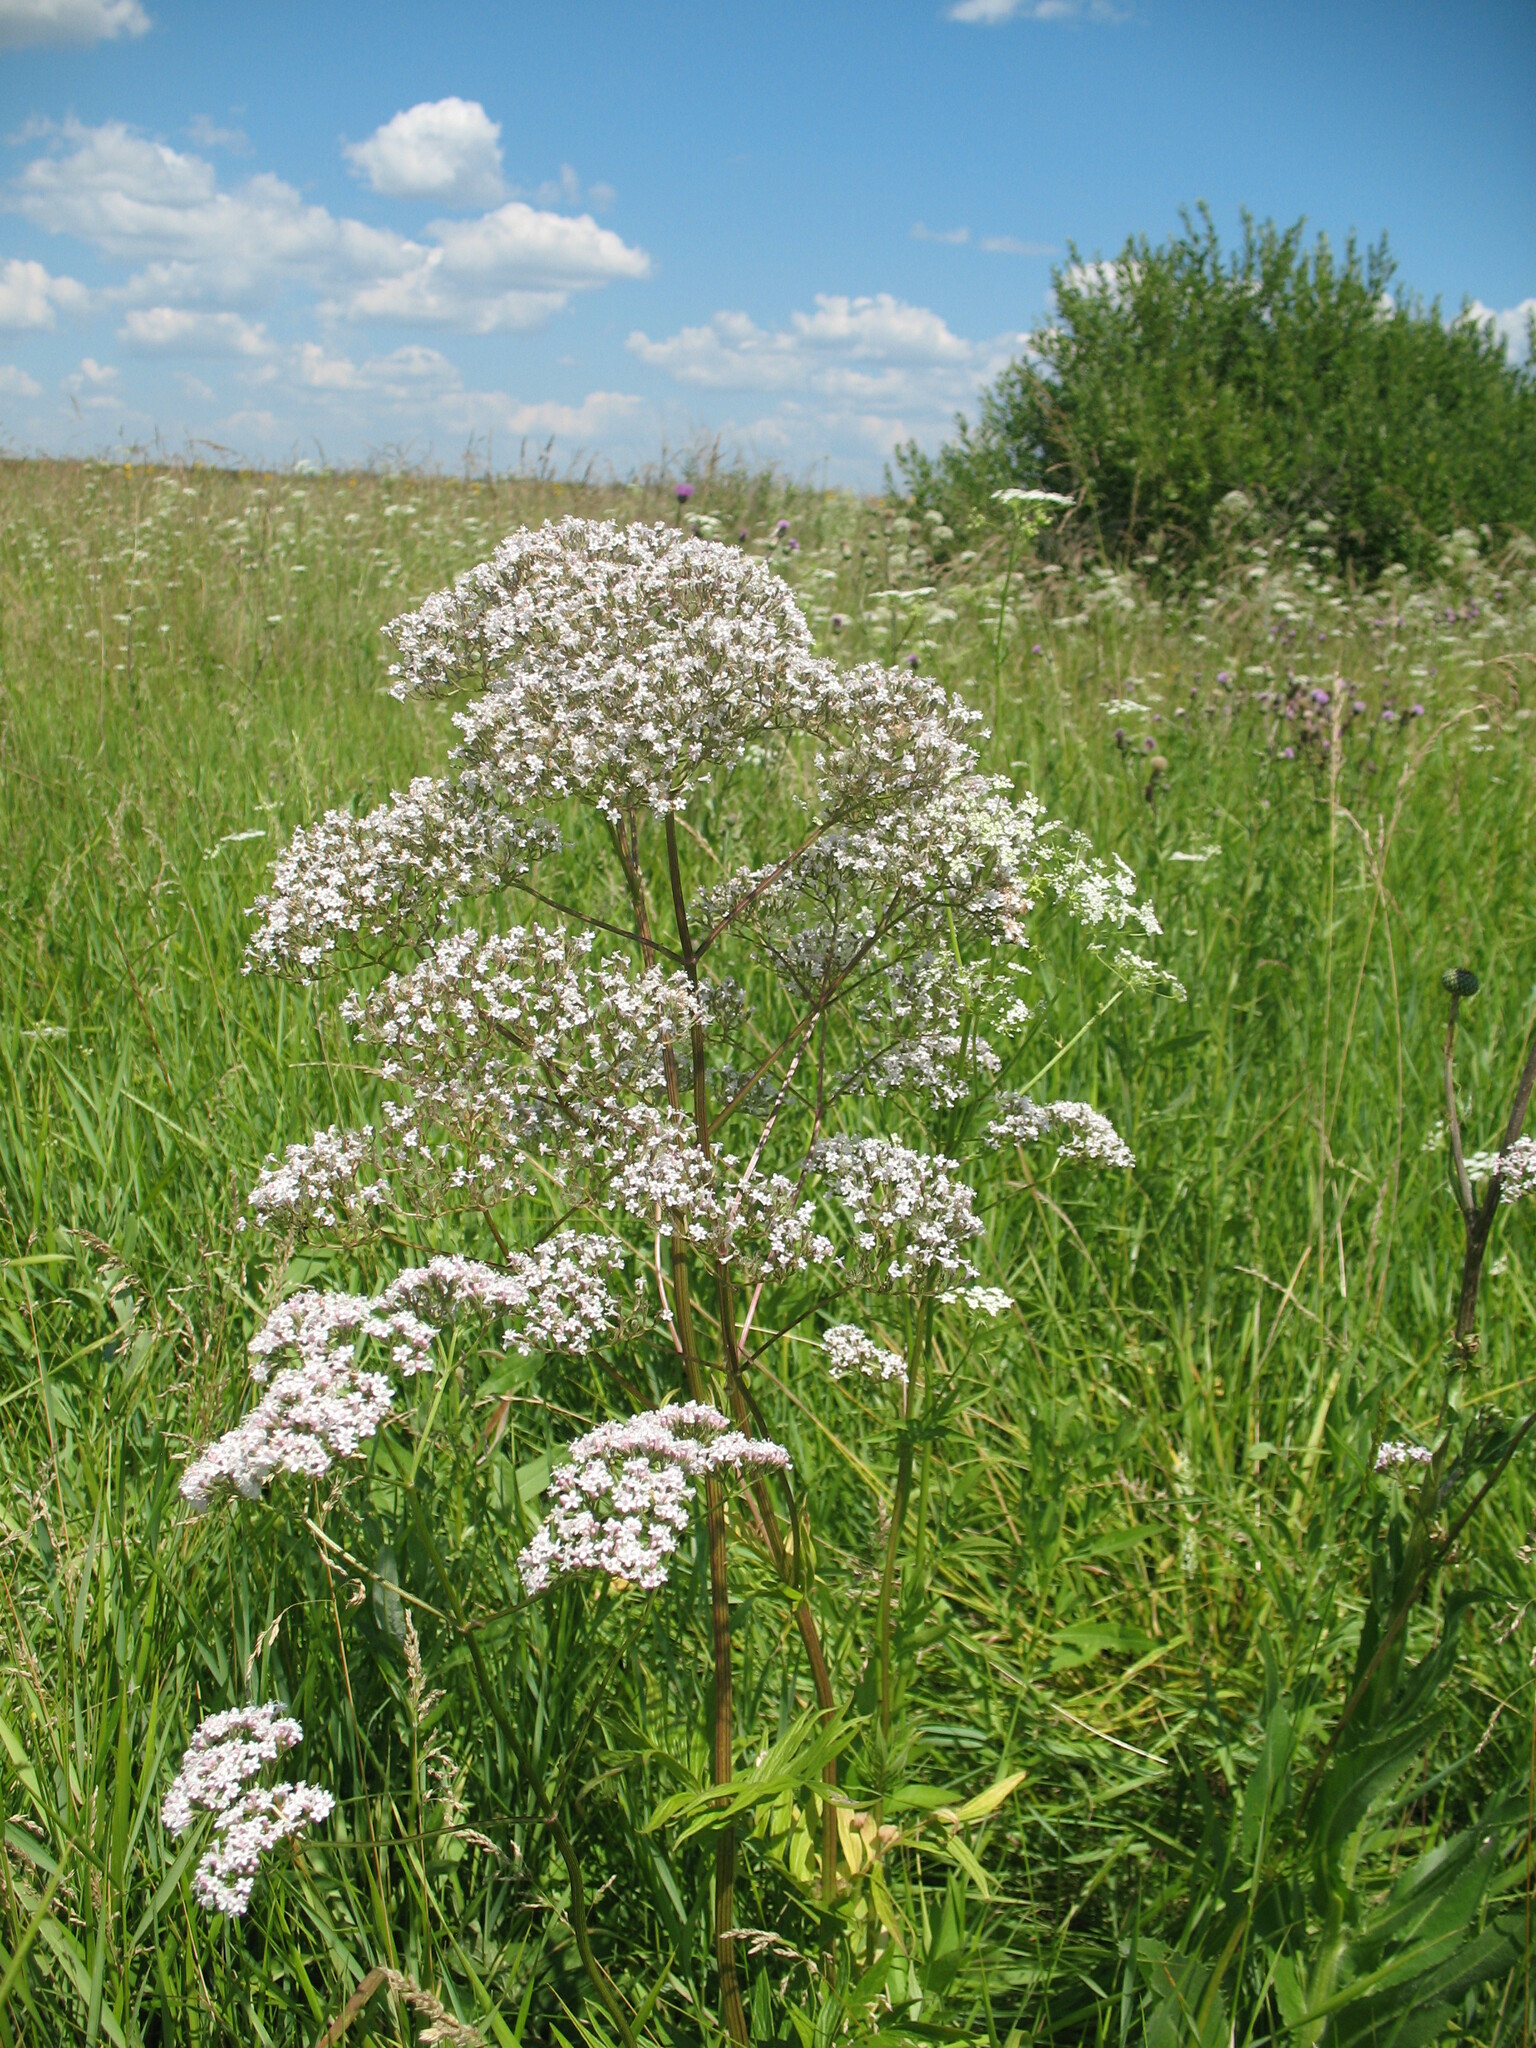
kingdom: Plantae
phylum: Tracheophyta
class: Magnoliopsida
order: Dipsacales
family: Caprifoliaceae
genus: Valeriana
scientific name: Valeriana officinalis
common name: Common valerian
